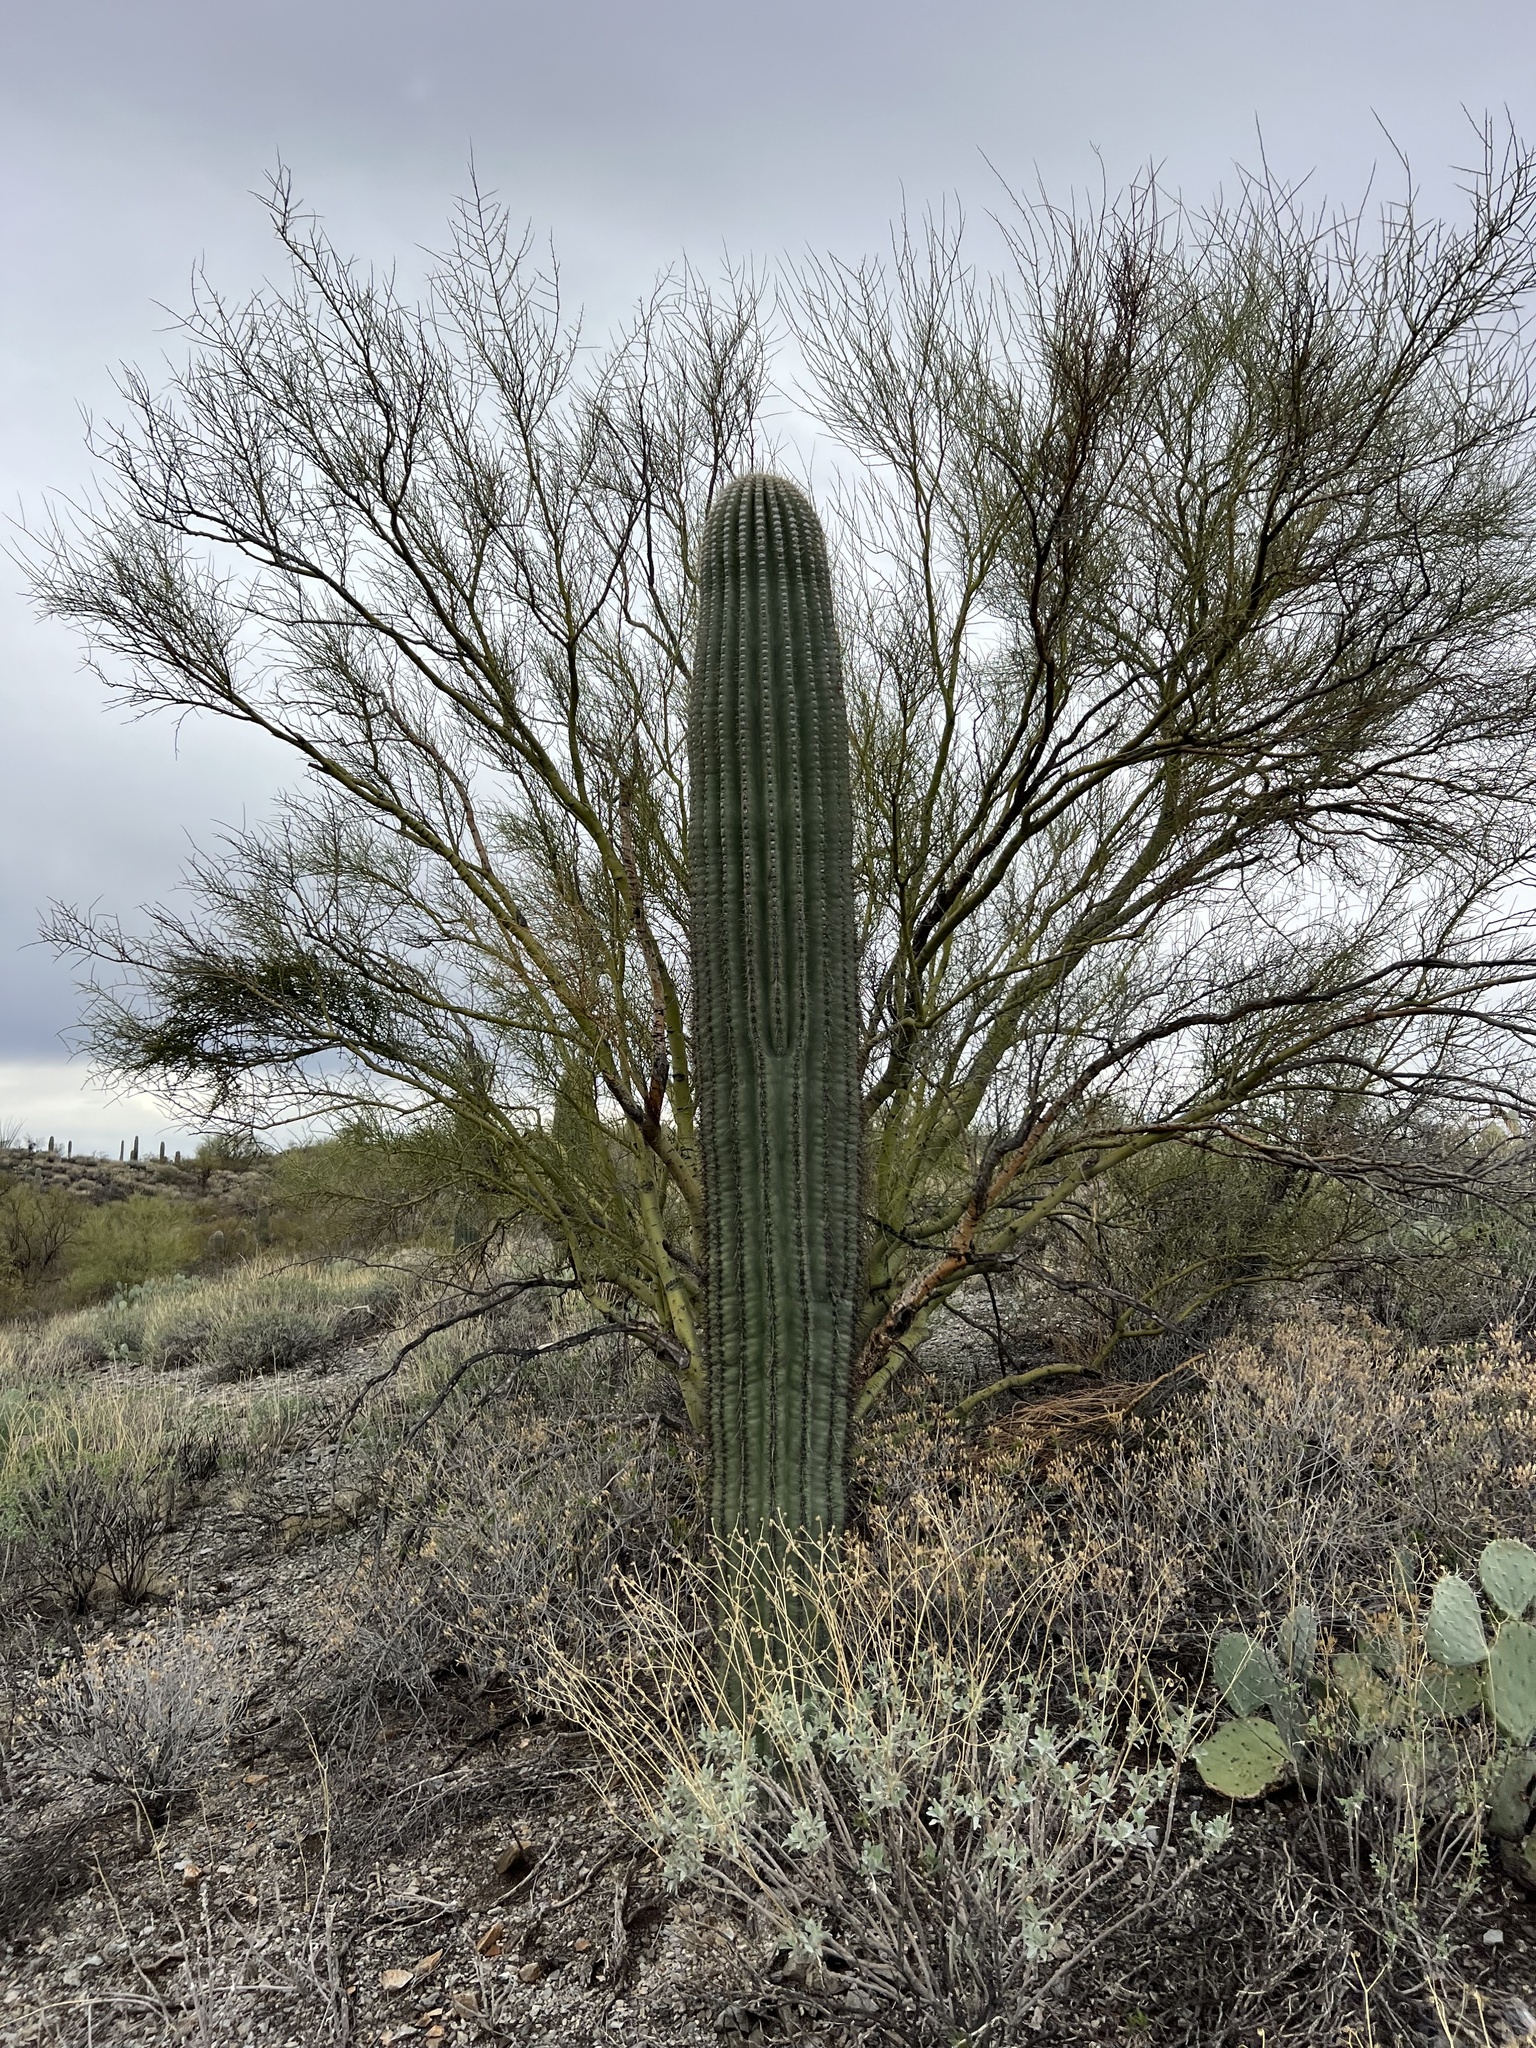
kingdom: Plantae
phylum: Tracheophyta
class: Magnoliopsida
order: Caryophyllales
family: Cactaceae
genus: Carnegiea
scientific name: Carnegiea gigantea
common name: Saguaro
